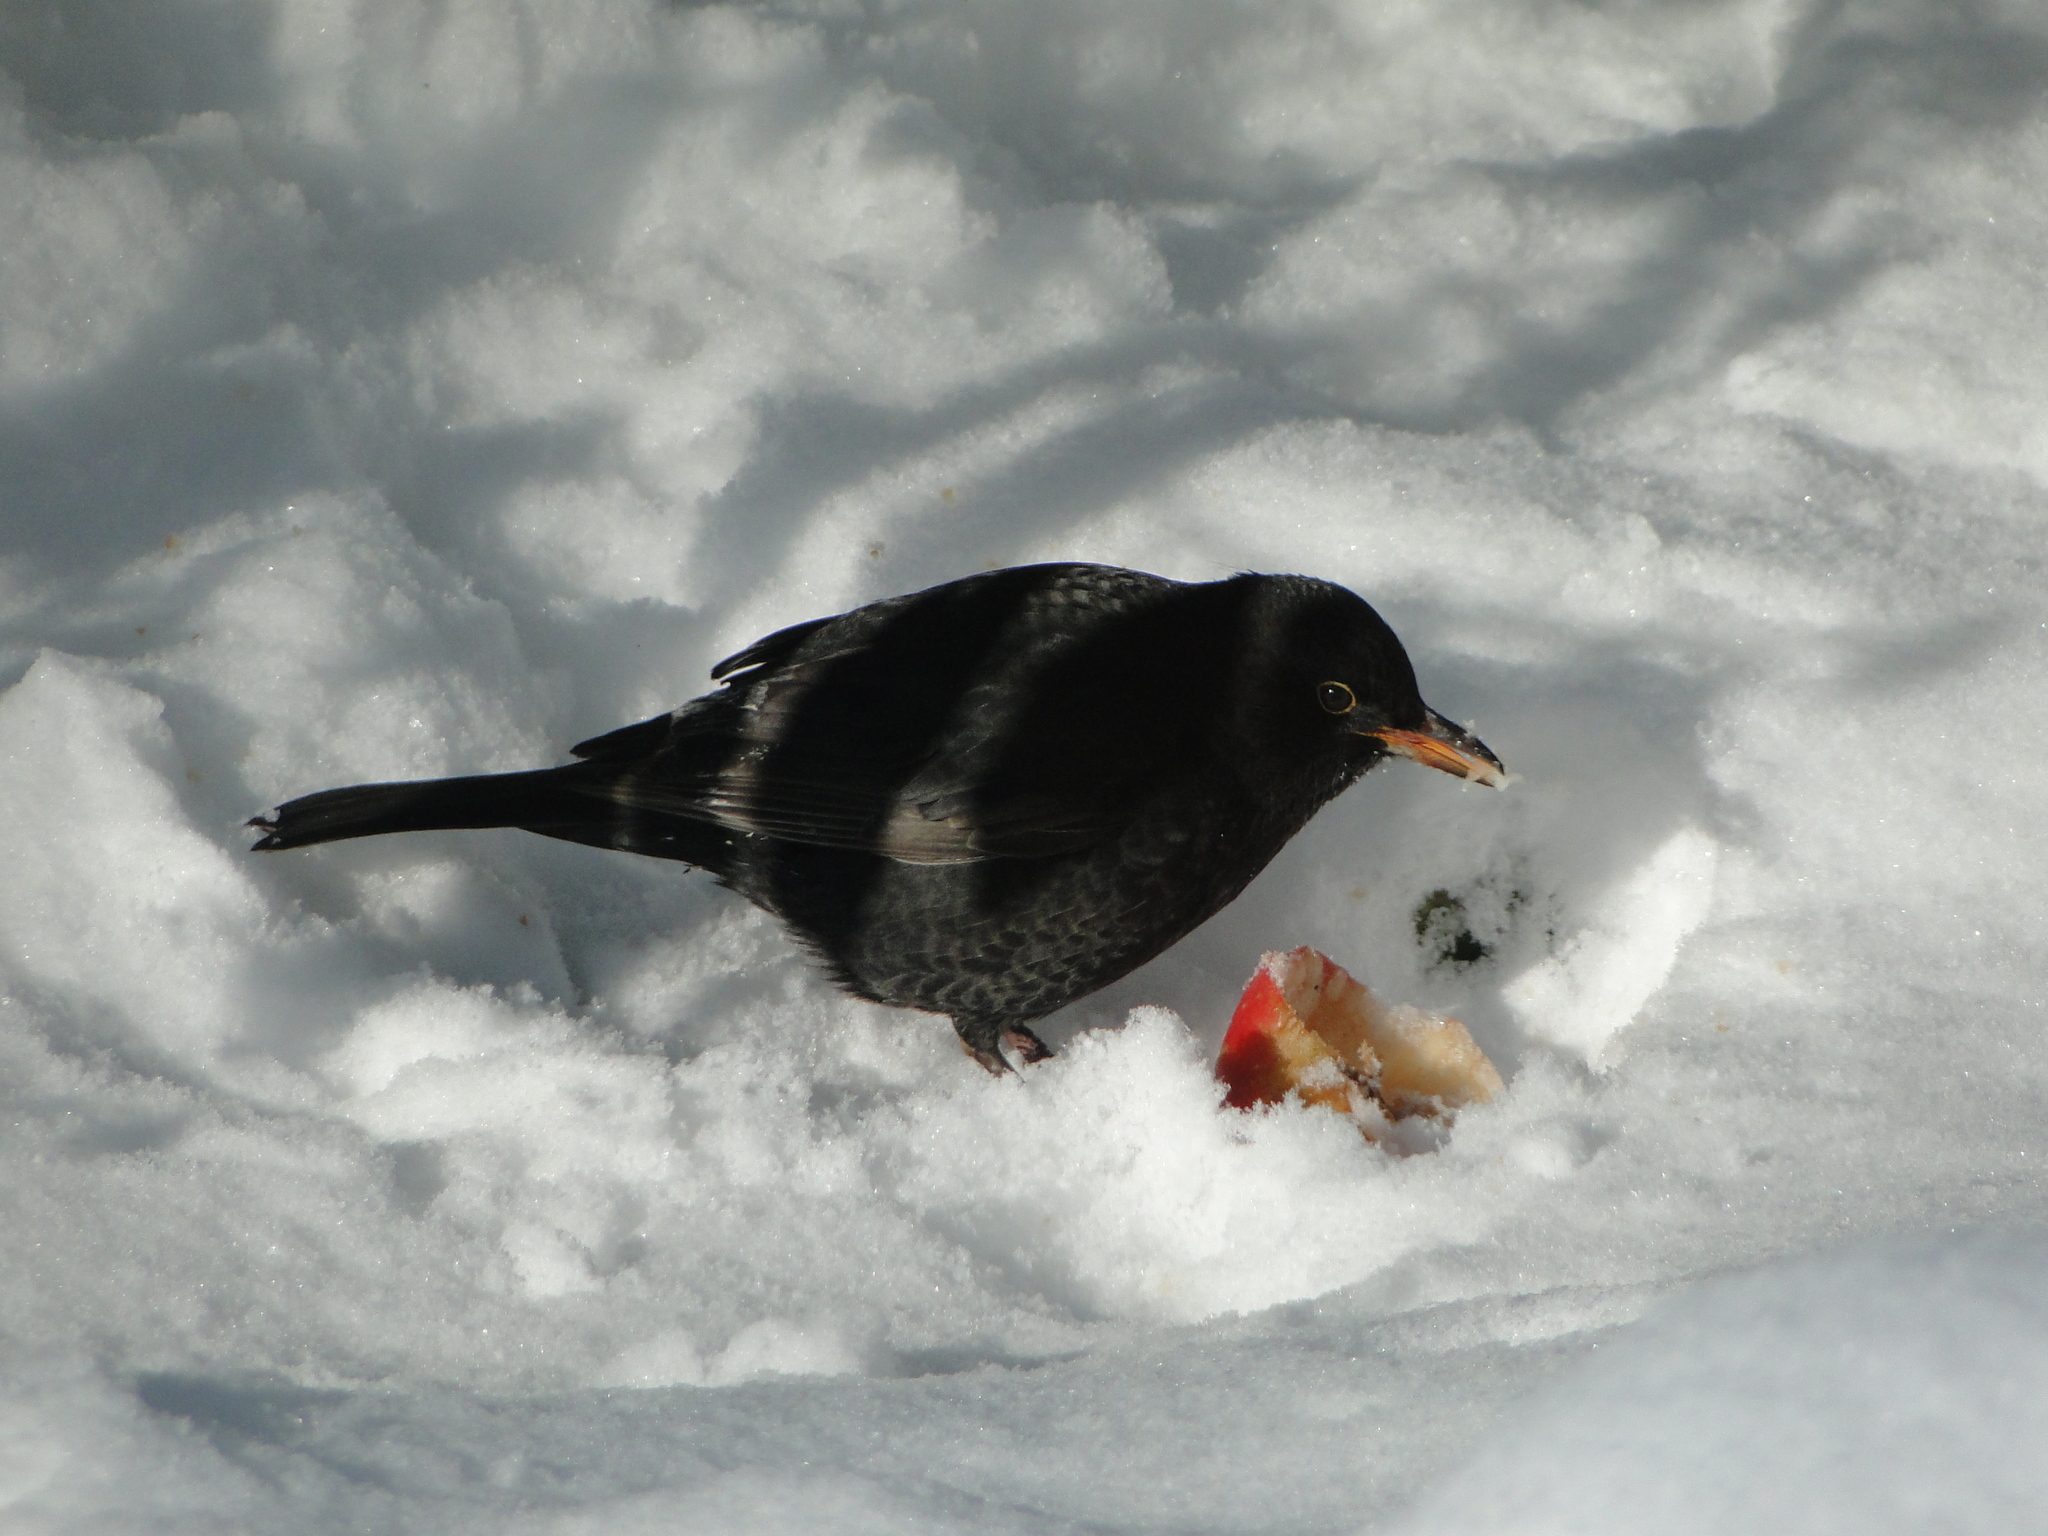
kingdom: Animalia
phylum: Chordata
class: Aves
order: Passeriformes
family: Turdidae
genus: Turdus
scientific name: Turdus merula
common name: Common blackbird
